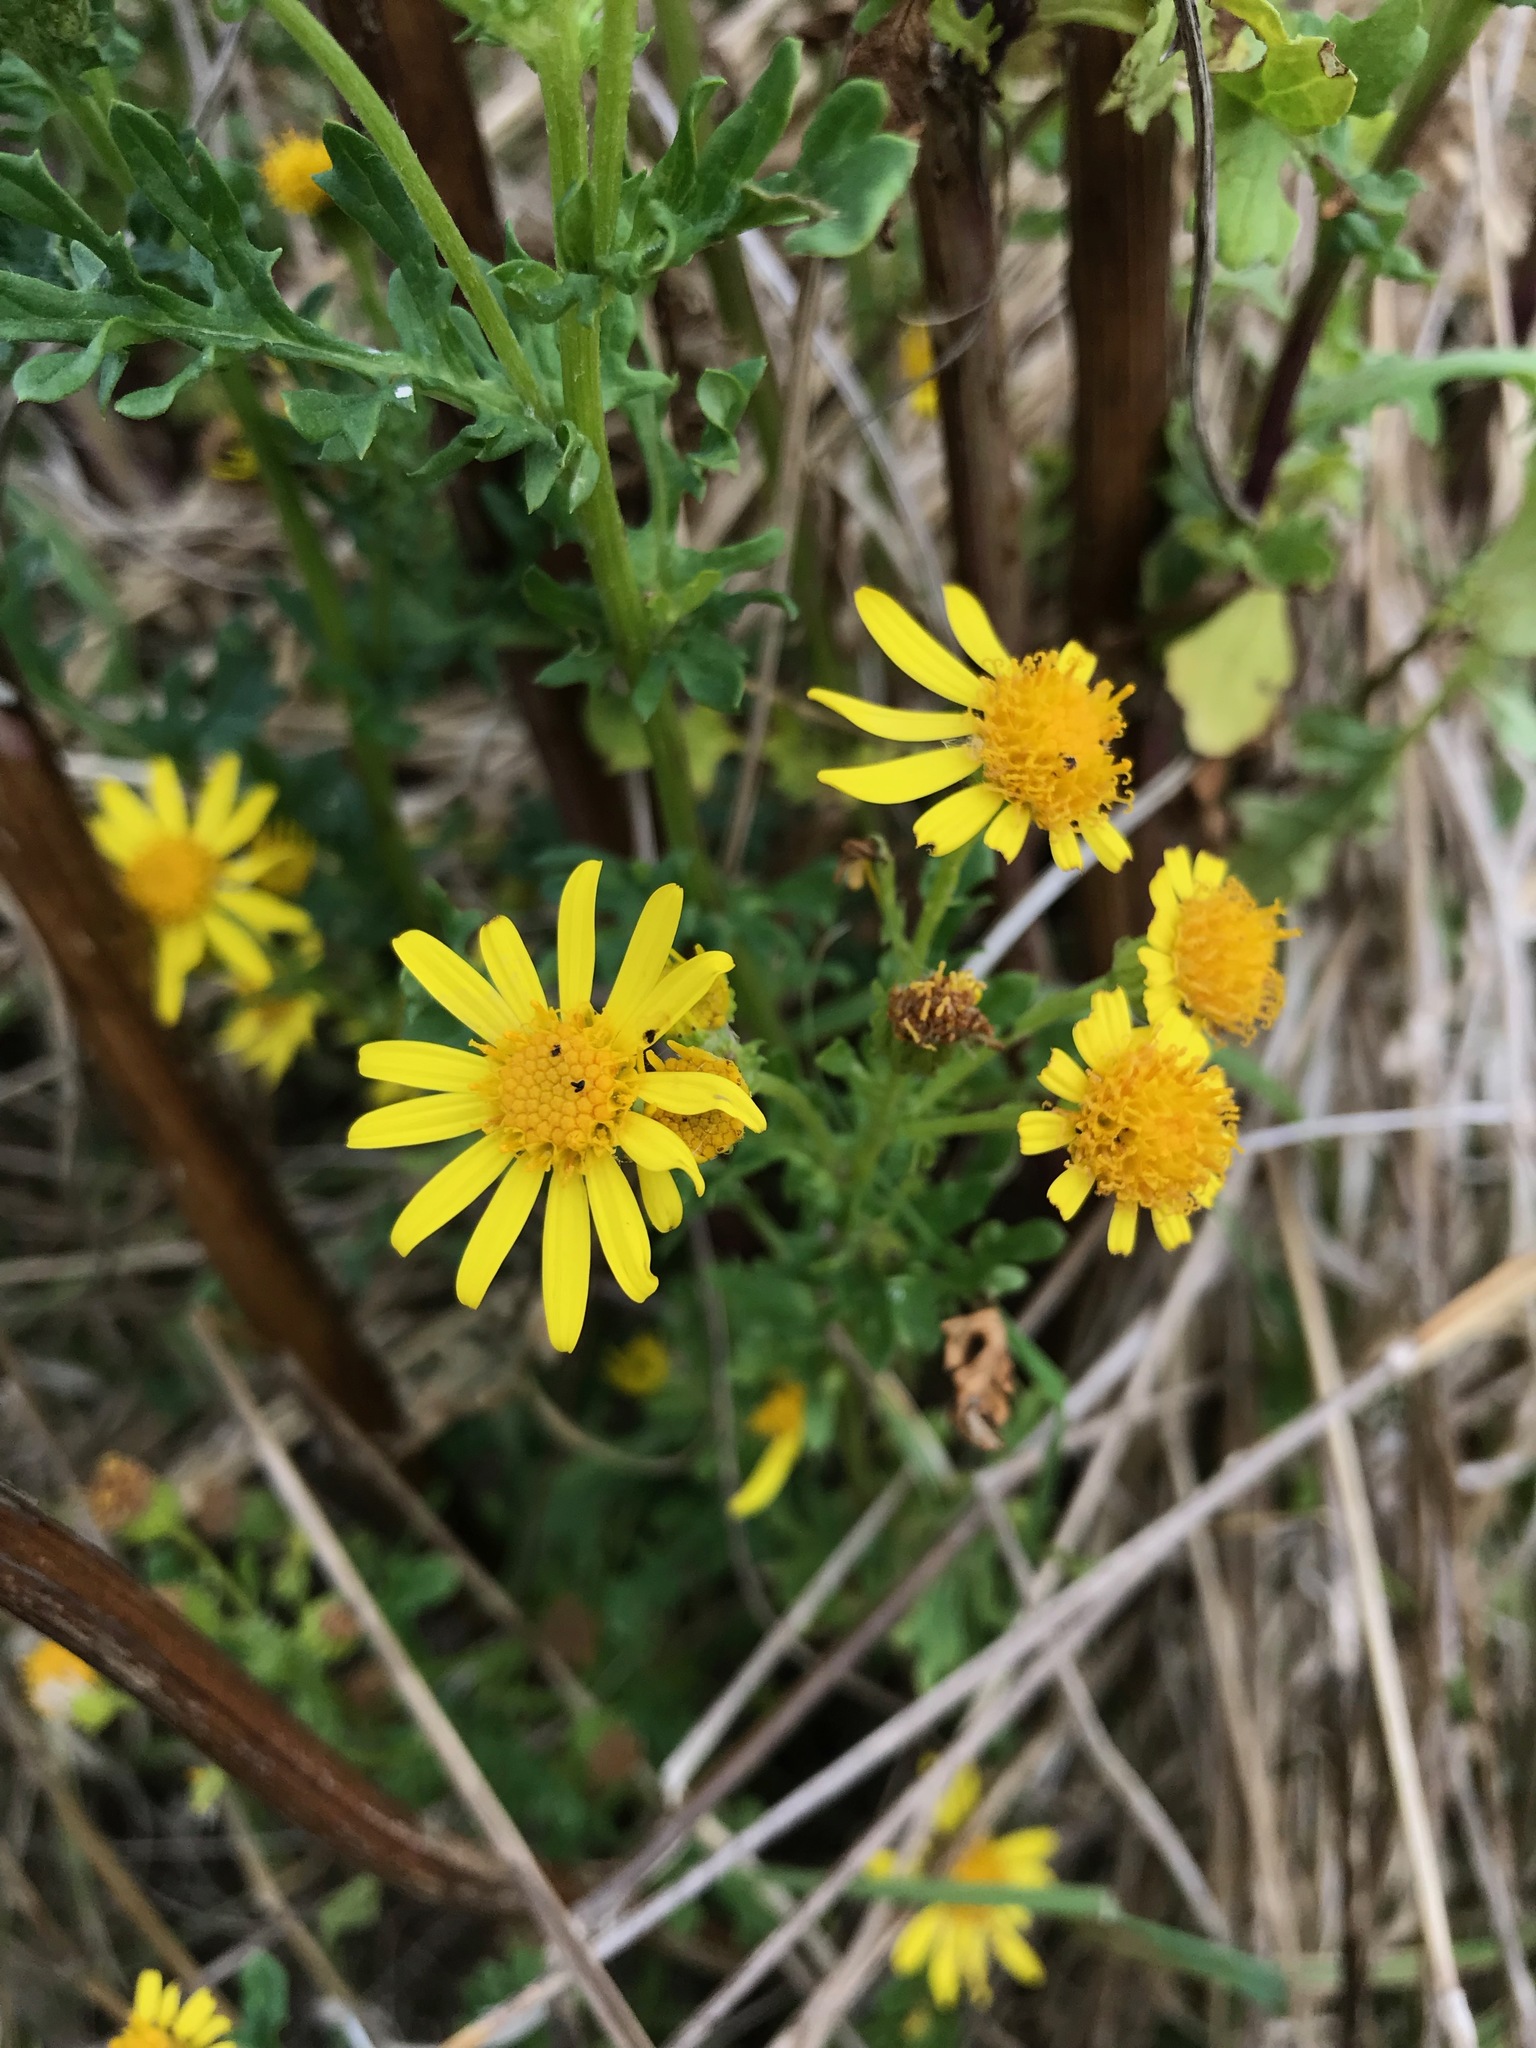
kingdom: Plantae
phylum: Tracheophyta
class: Magnoliopsida
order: Asterales
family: Asteraceae
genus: Jacobaea
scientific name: Jacobaea vulgaris
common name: Stinking willie
